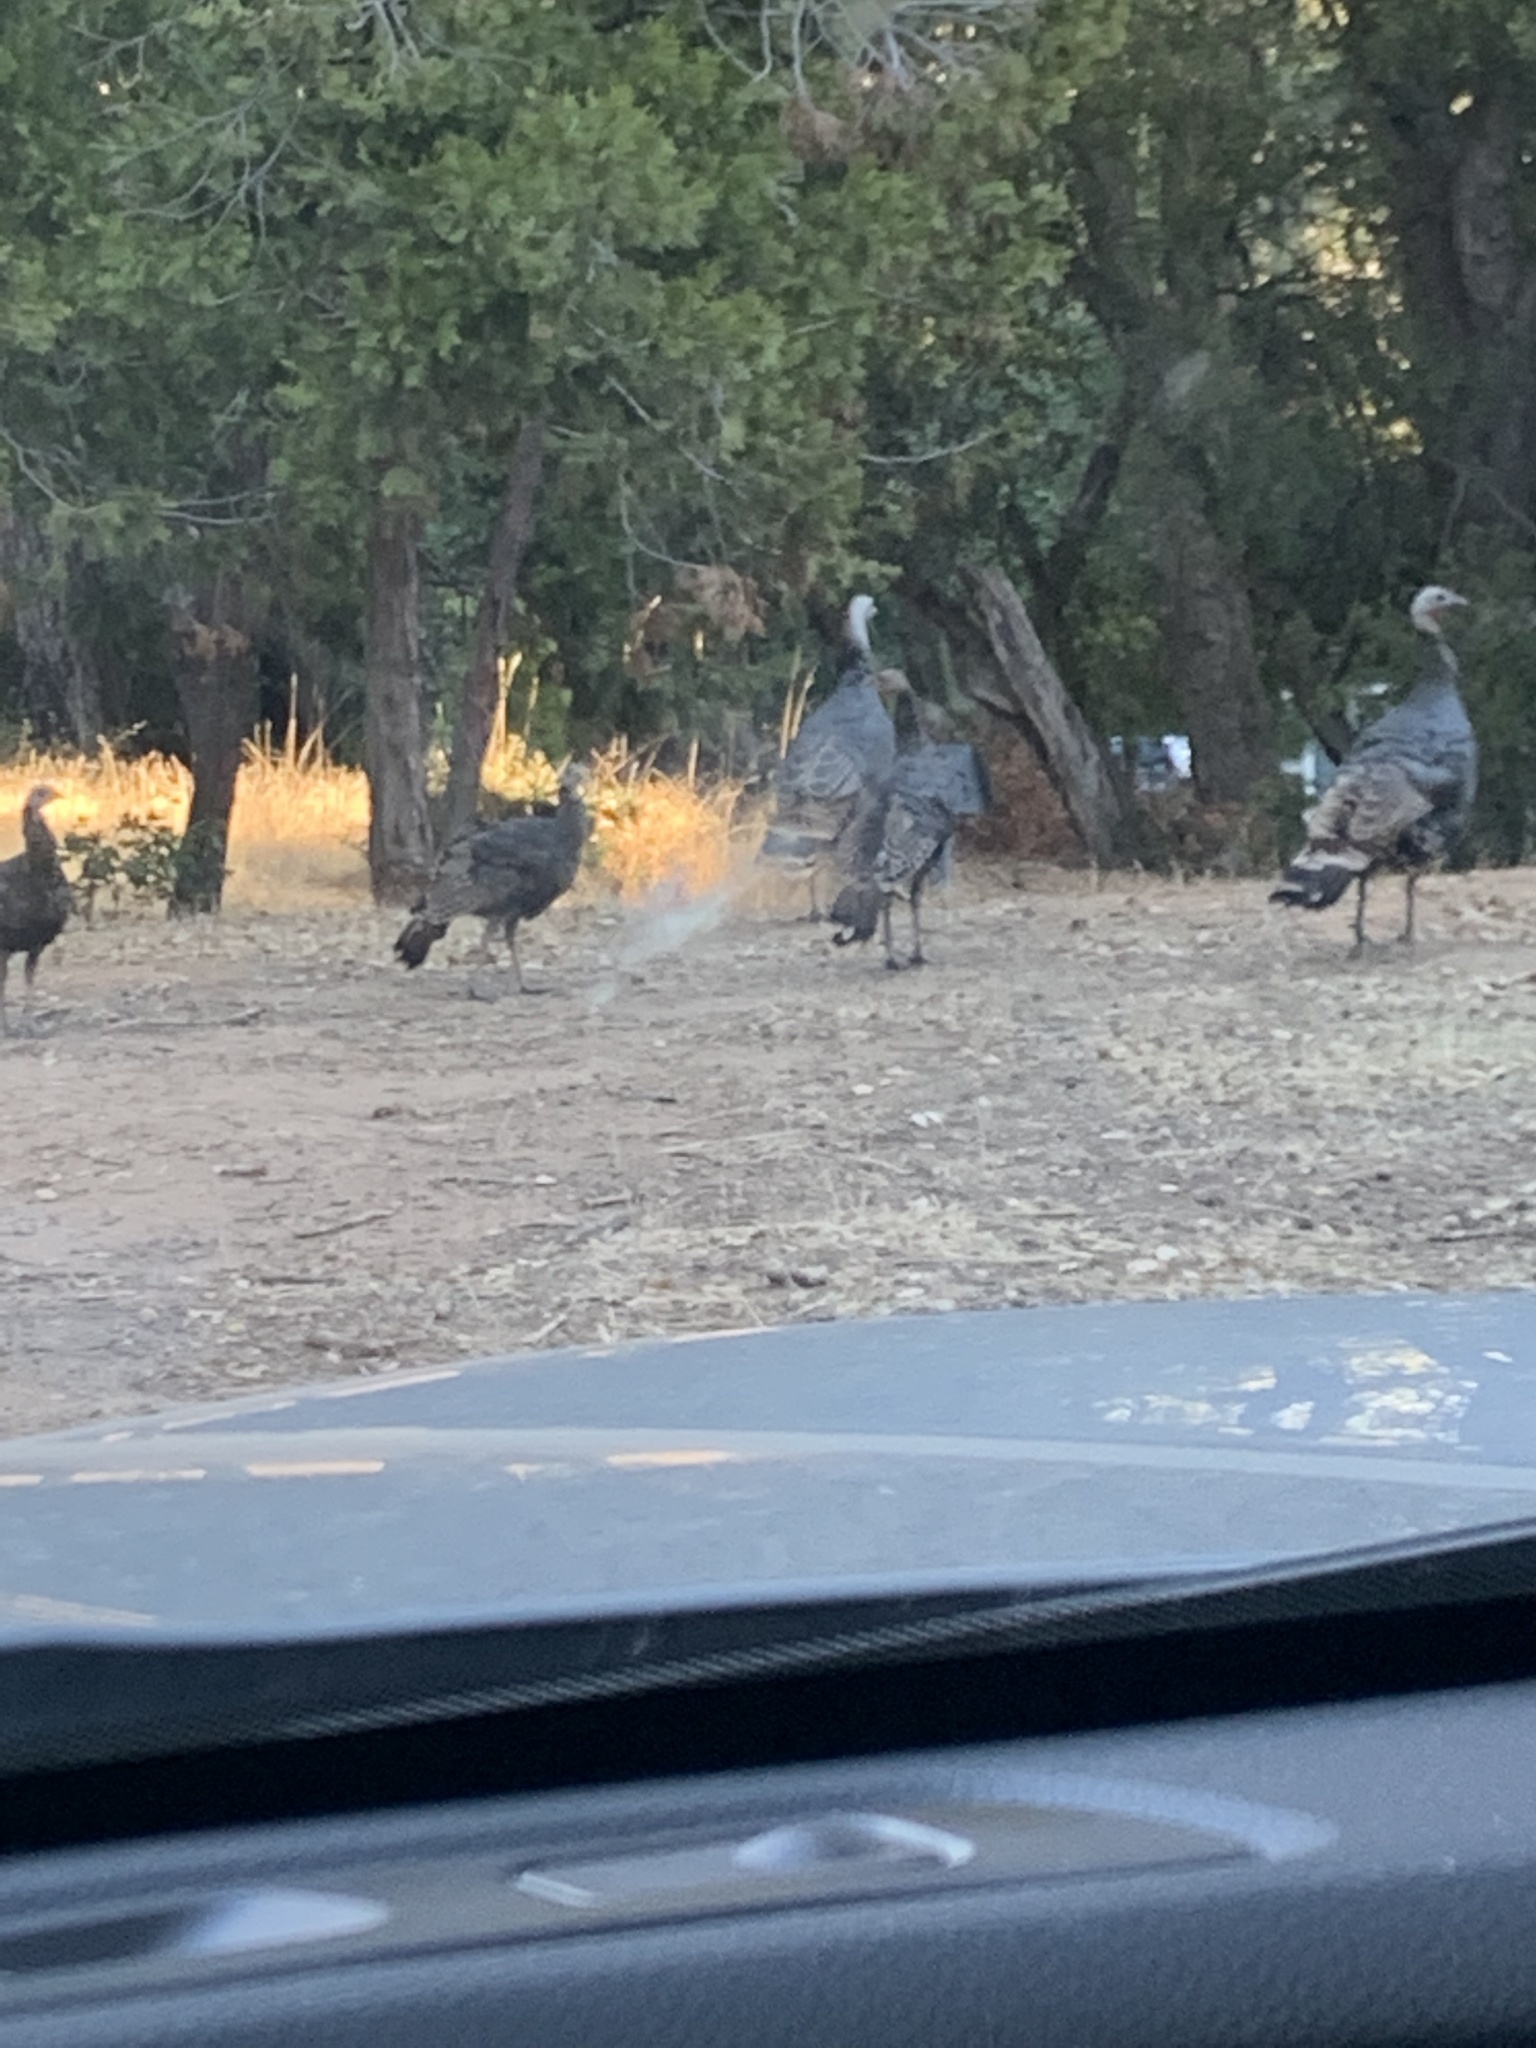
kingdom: Animalia
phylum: Chordata
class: Aves
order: Galliformes
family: Phasianidae
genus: Meleagris
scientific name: Meleagris gallopavo
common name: Wild turkey
